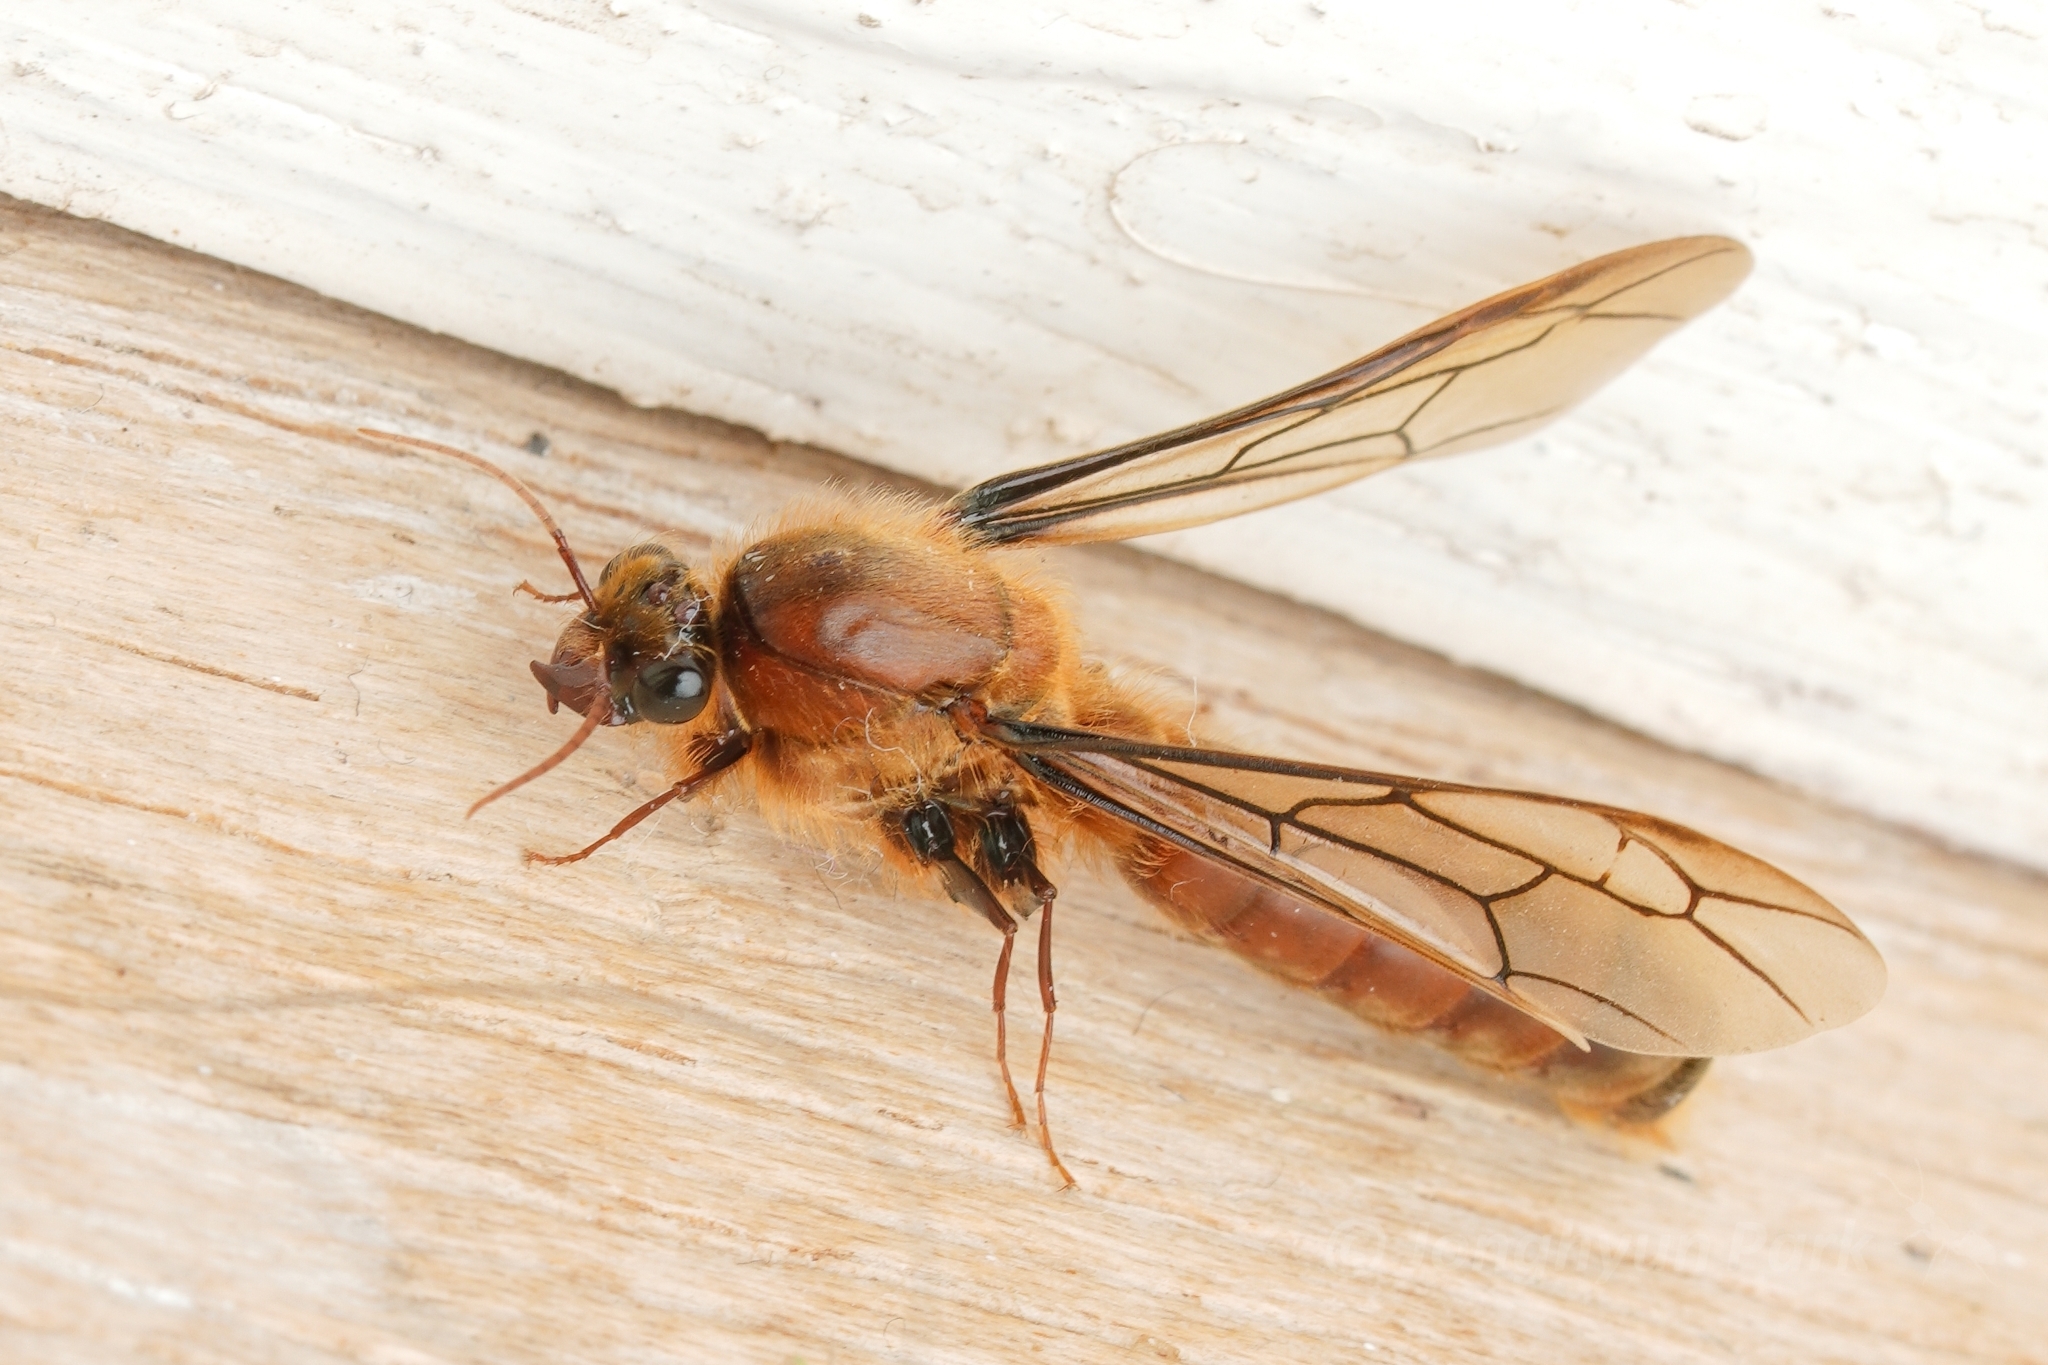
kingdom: Animalia
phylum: Arthropoda
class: Insecta
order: Hymenoptera
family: Formicidae
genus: Dorylus
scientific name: Dorylus laevigatus
